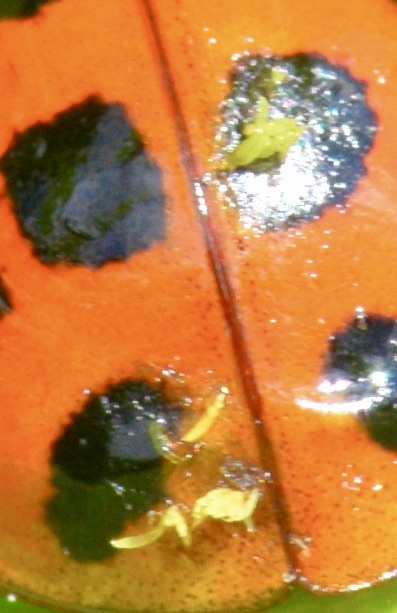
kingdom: Fungi
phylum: Ascomycota
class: Laboulbeniomycetes
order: Laboulbeniales
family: Laboulbeniaceae
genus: Hesperomyces
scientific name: Hesperomyces harmoniae
